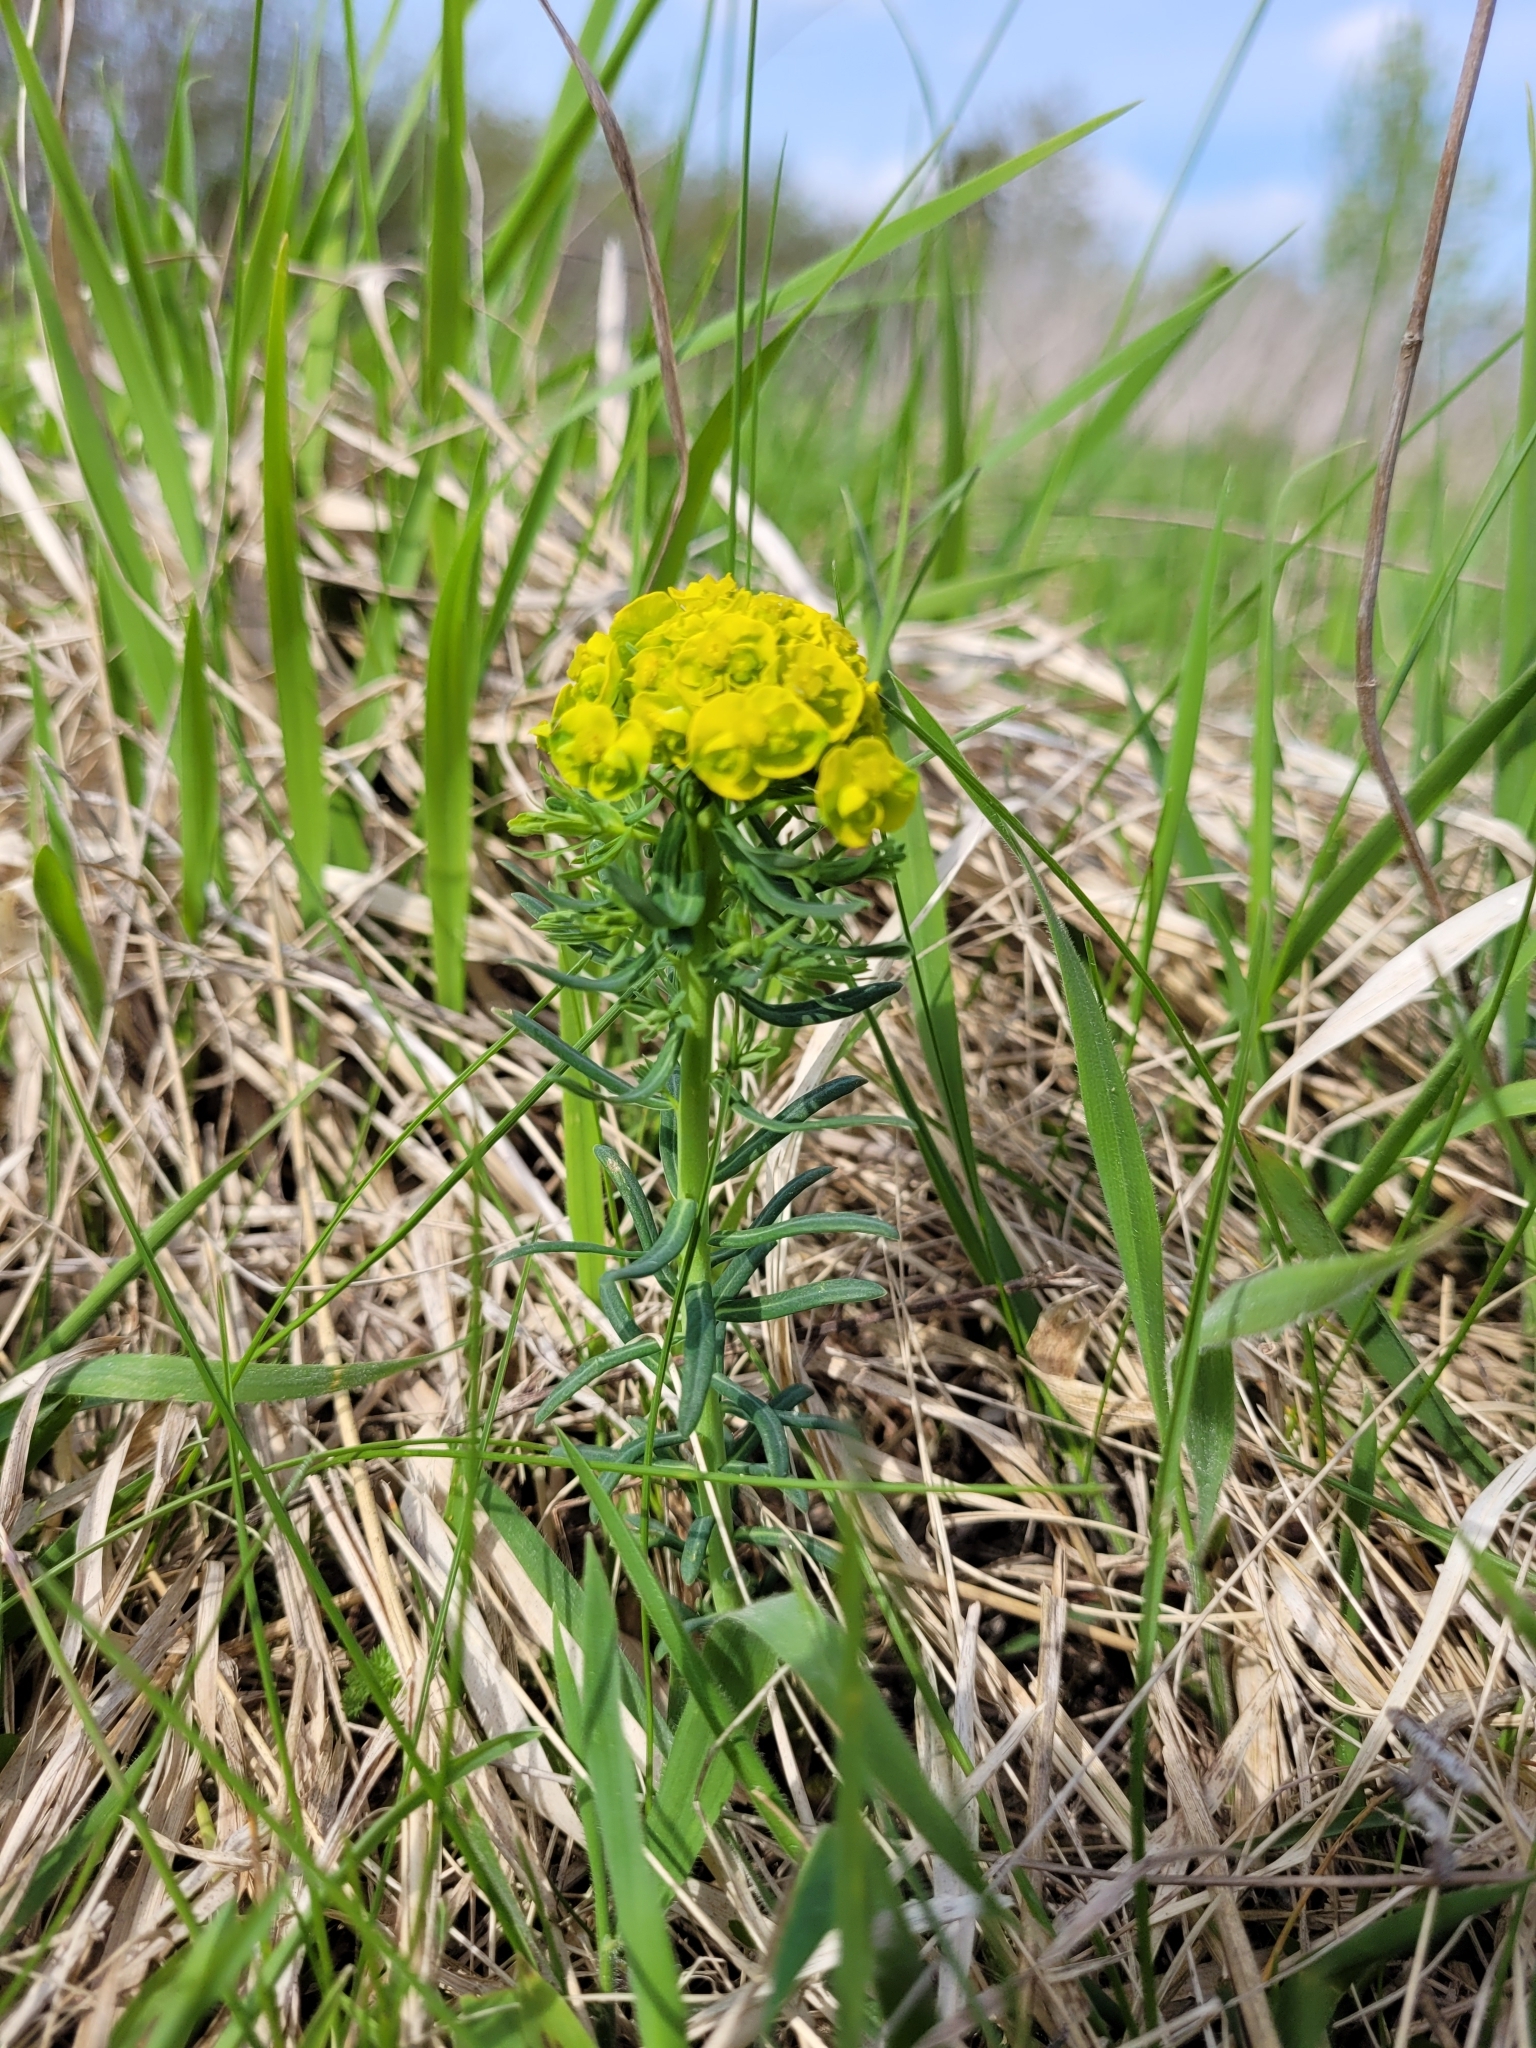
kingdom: Plantae
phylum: Tracheophyta
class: Magnoliopsida
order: Malpighiales
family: Euphorbiaceae
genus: Euphorbia
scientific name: Euphorbia cyparissias
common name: Cypress spurge
